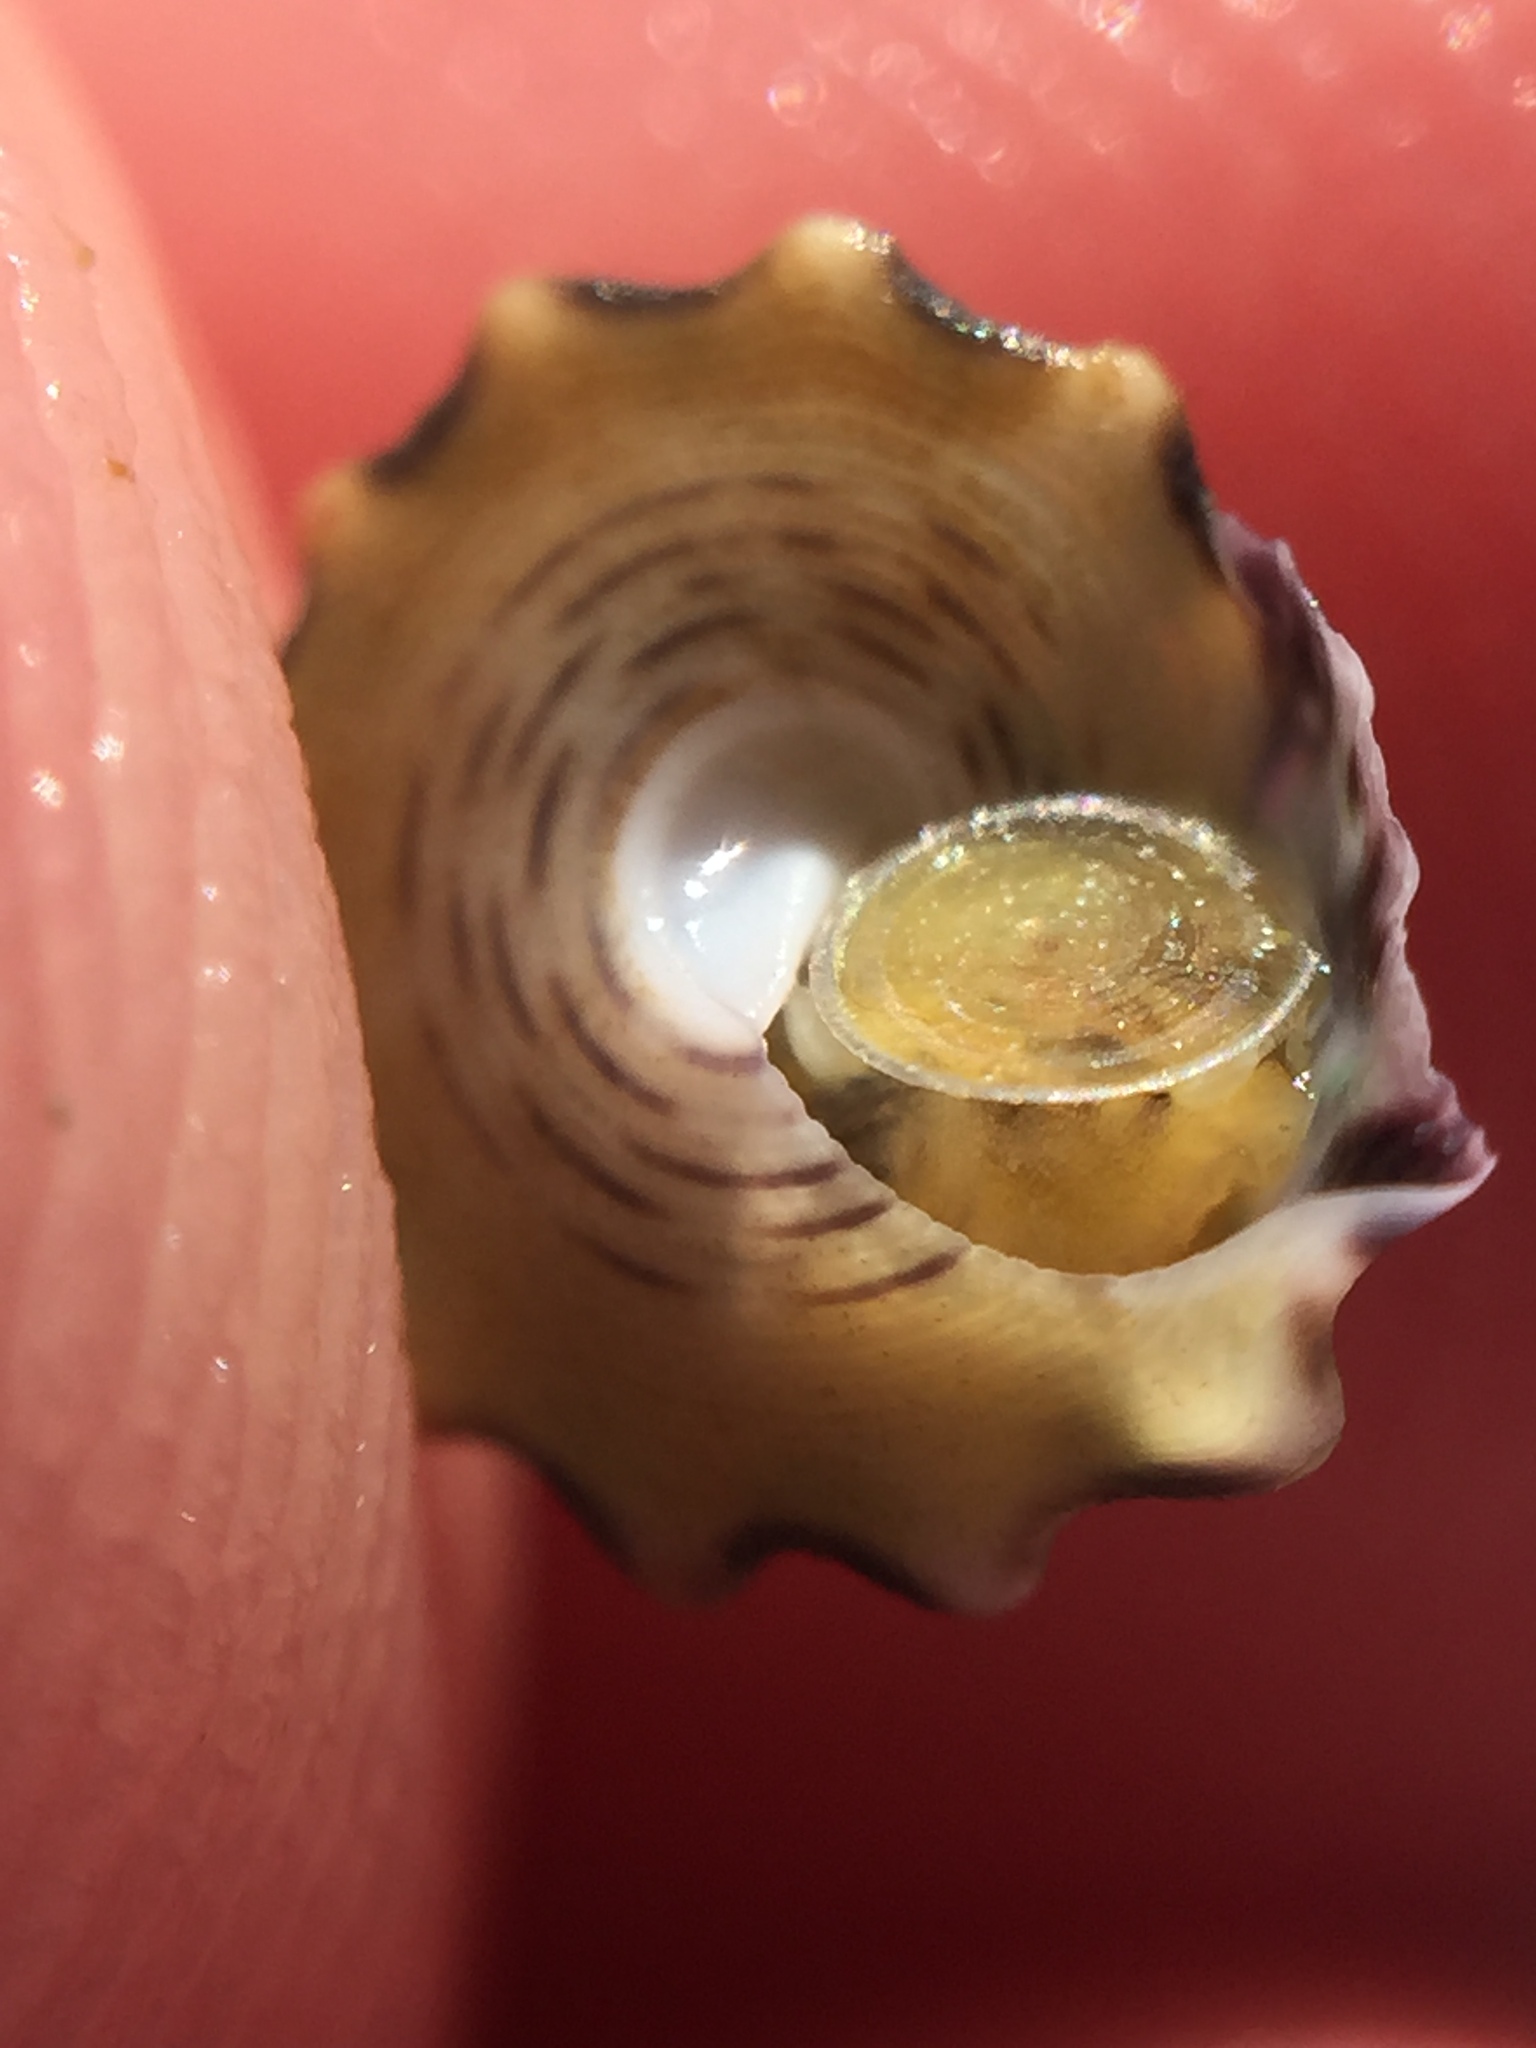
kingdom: Animalia
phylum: Mollusca
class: Gastropoda
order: Trochida
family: Trochidae
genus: Coelotrochus
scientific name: Coelotrochus viridis
